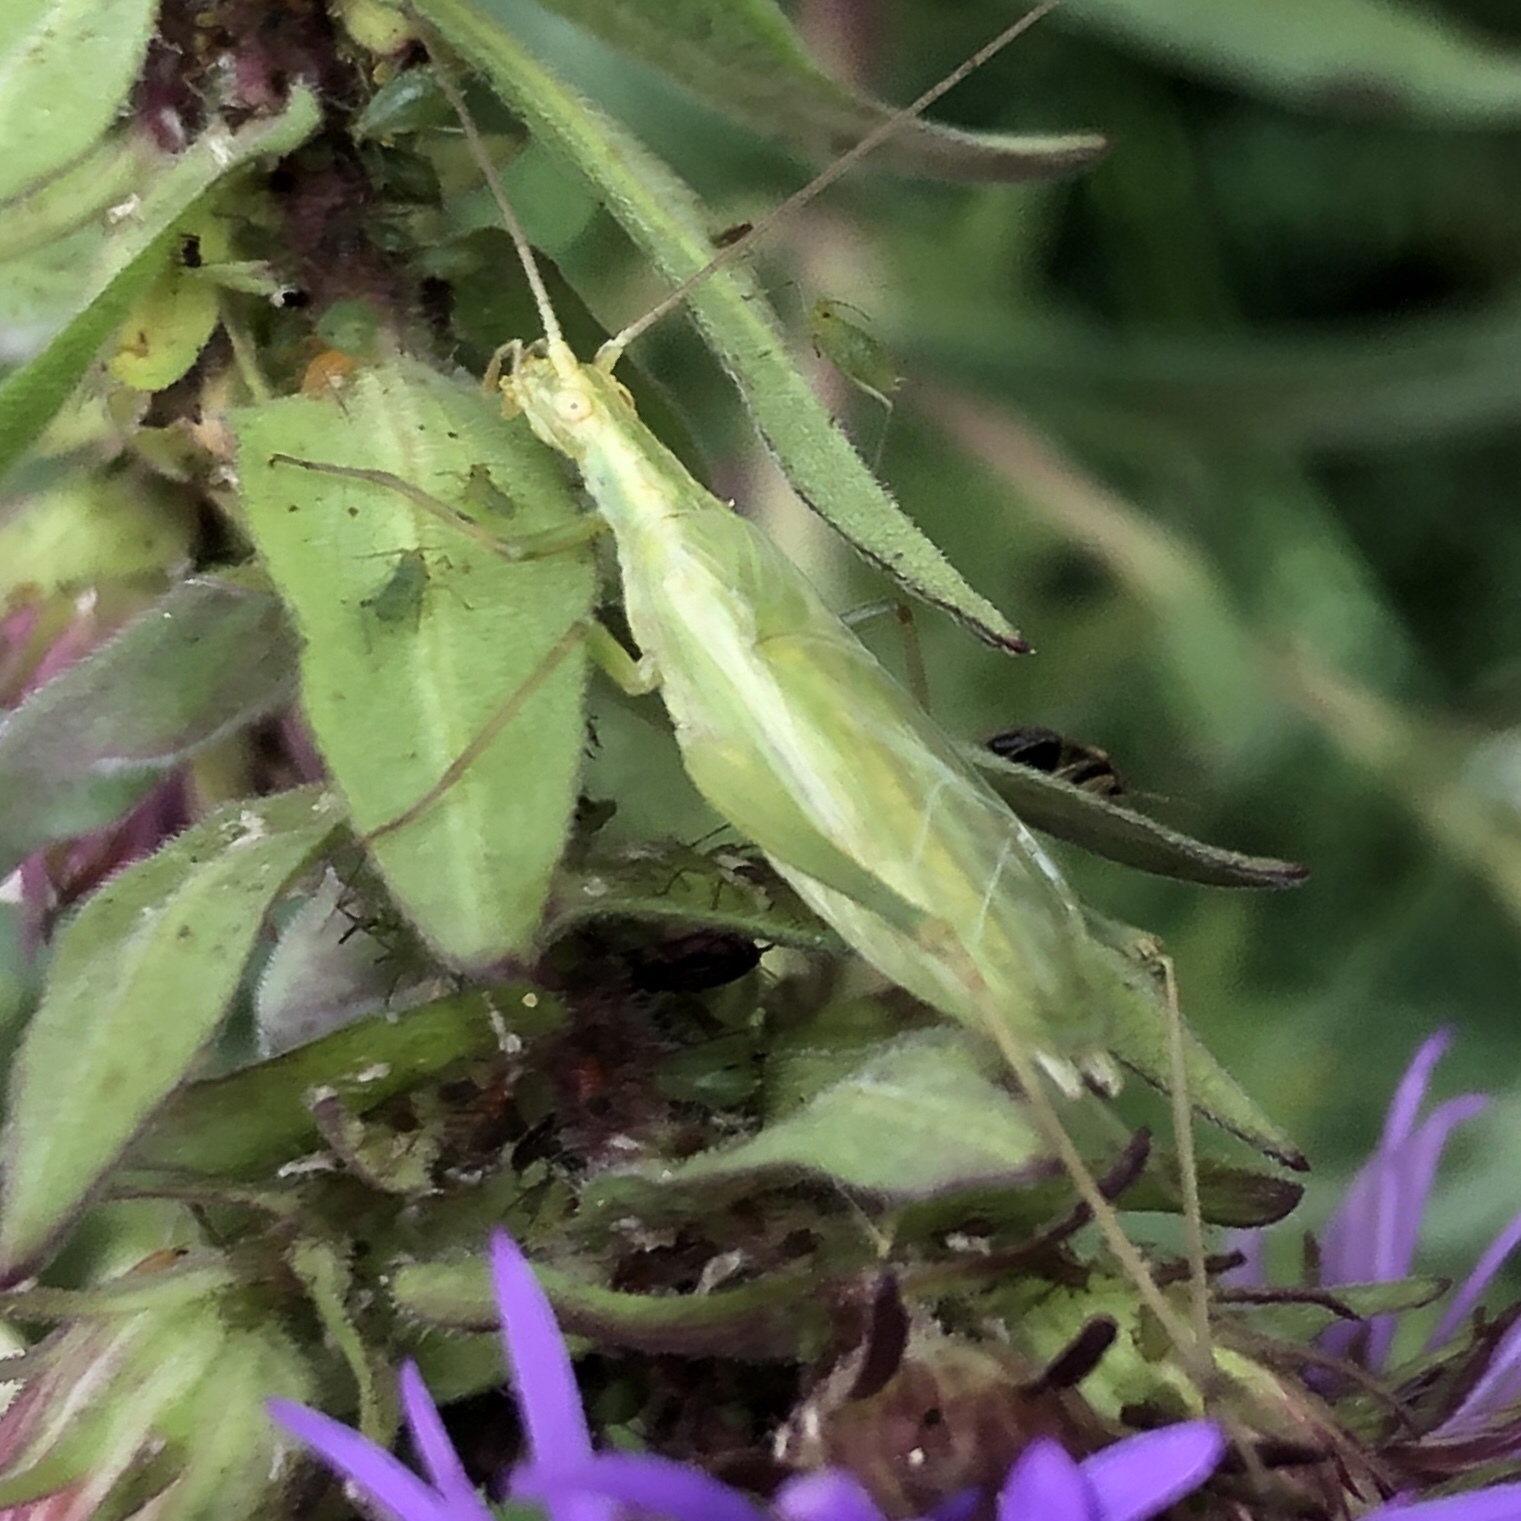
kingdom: Animalia
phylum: Arthropoda
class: Insecta
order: Orthoptera
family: Gryllidae
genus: Oecanthus
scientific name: Oecanthus quadripunctatus
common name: Four-spotted tree cricket
